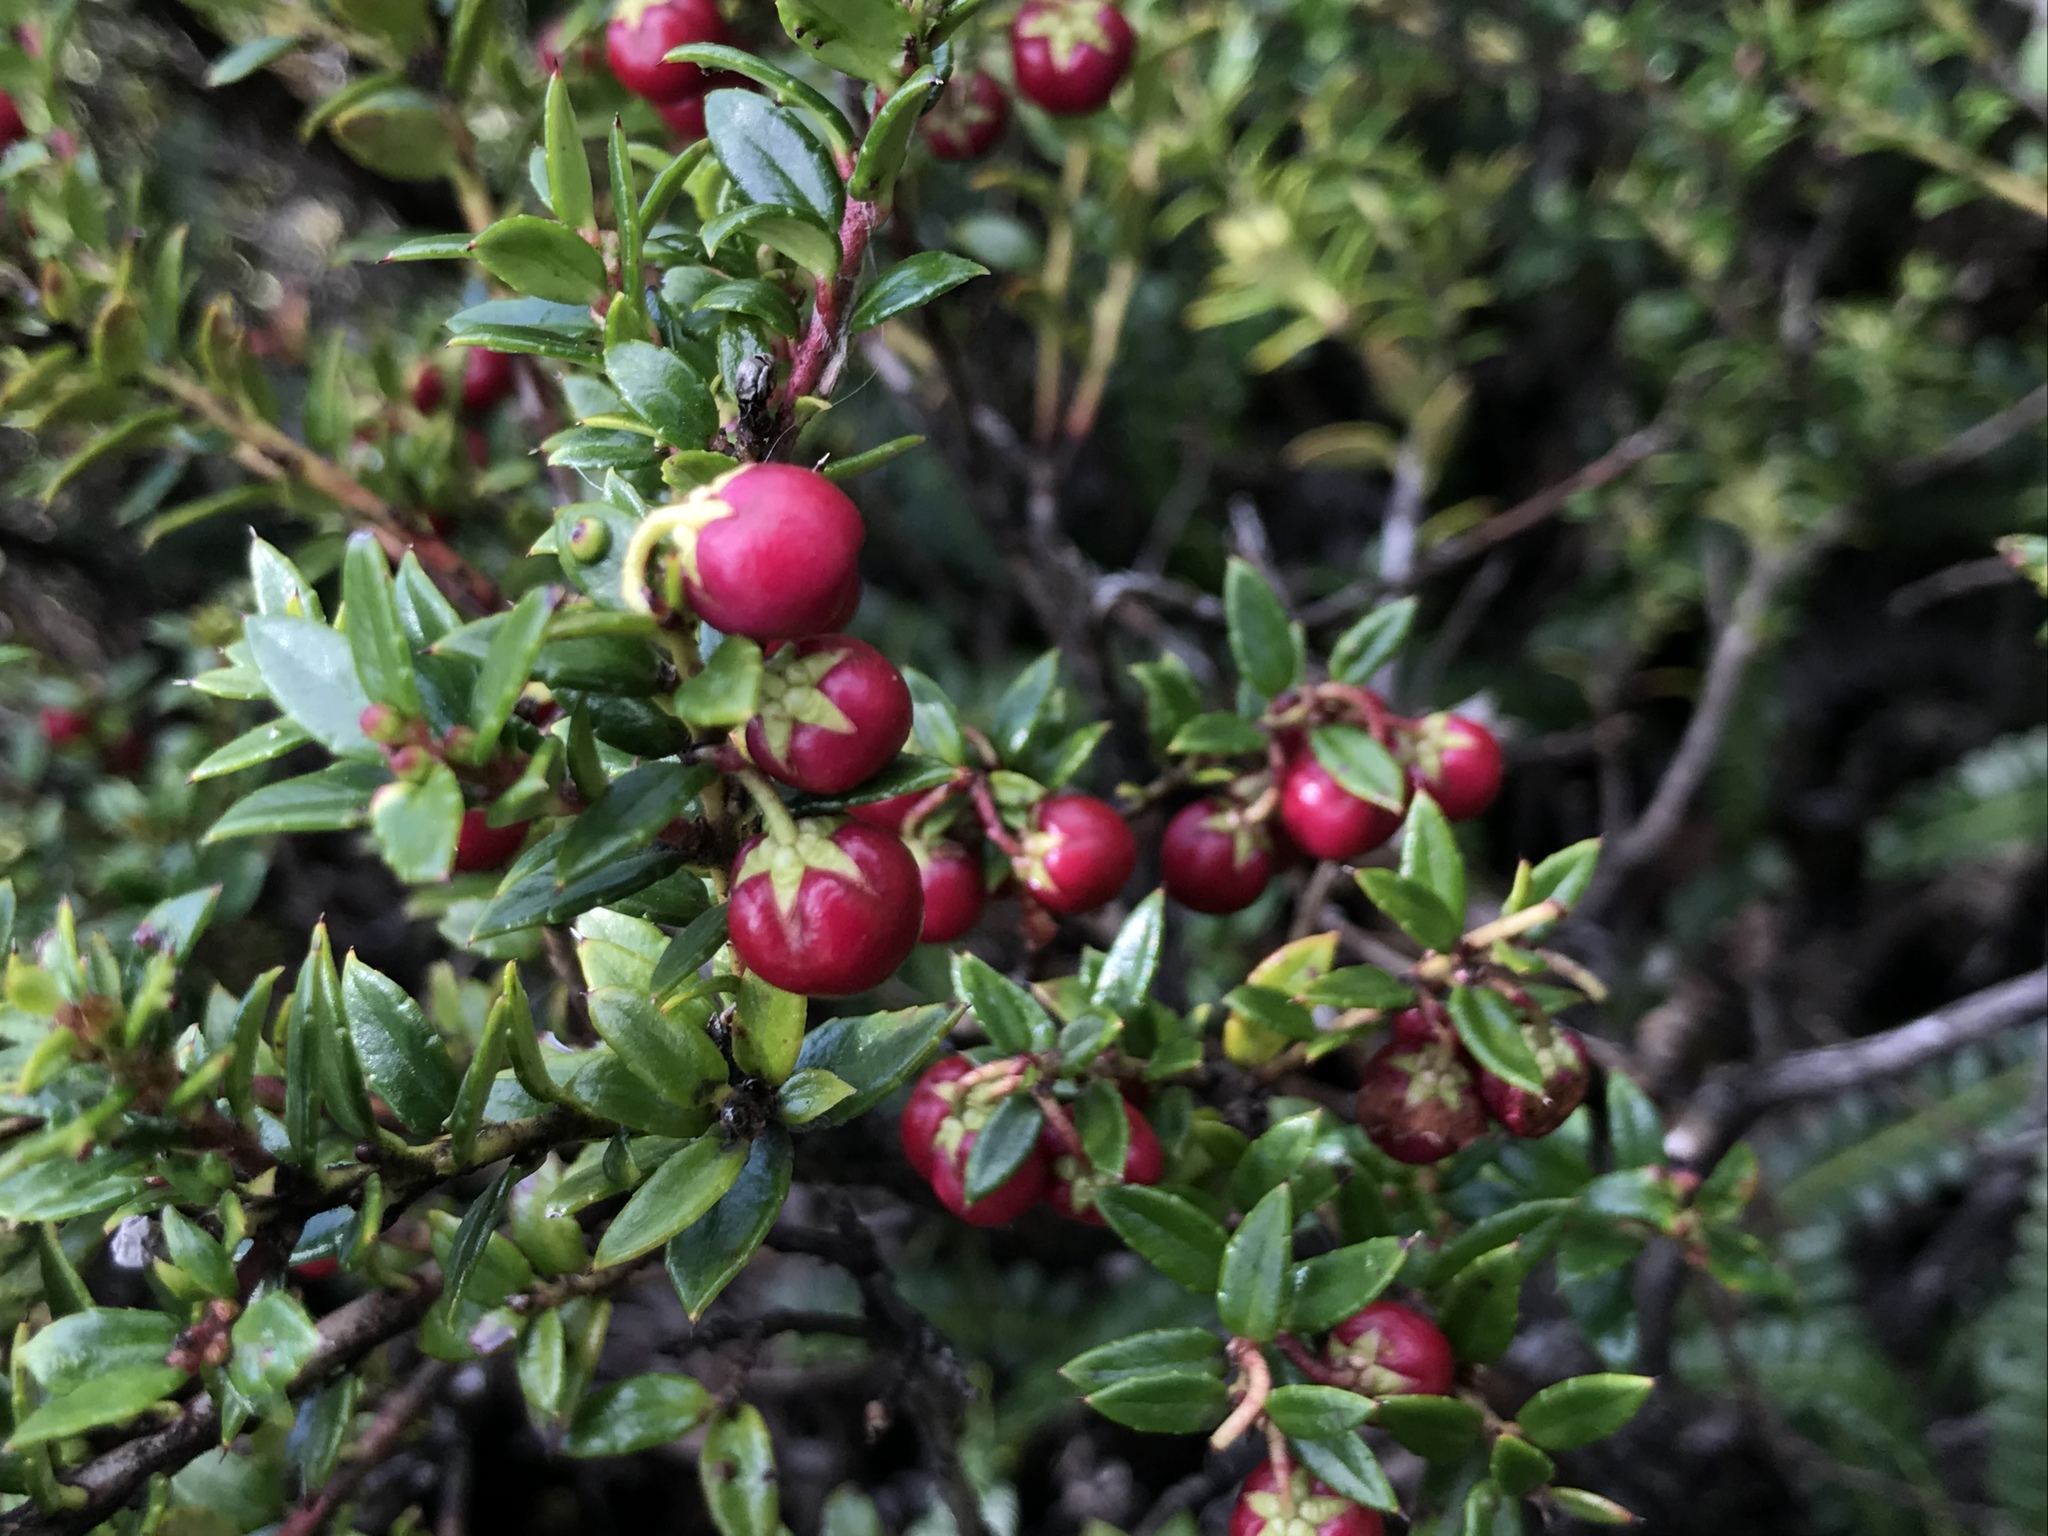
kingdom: Plantae
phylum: Tracheophyta
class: Magnoliopsida
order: Ericales
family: Ericaceae
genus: Gaultheria
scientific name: Gaultheria mucronata
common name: Prickly heath
